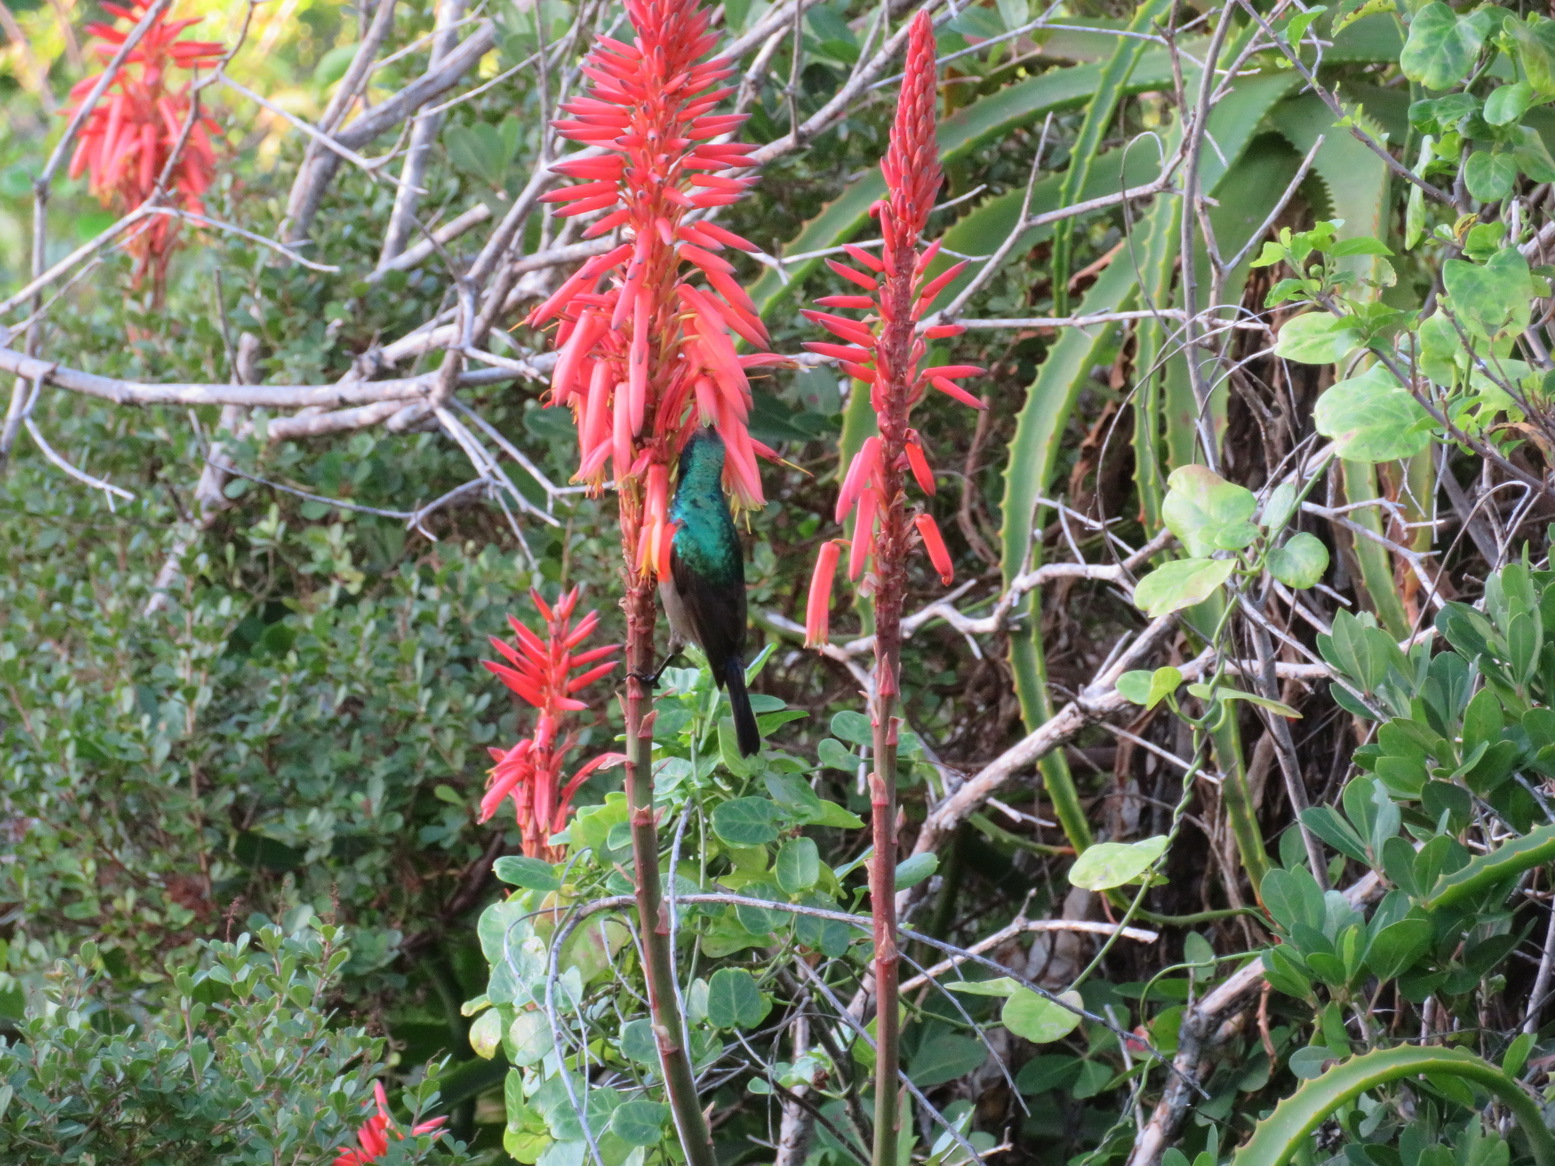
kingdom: Plantae
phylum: Tracheophyta
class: Liliopsida
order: Asparagales
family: Asphodelaceae
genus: Aloe
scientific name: Aloe arborescens
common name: Candelabra aloe
